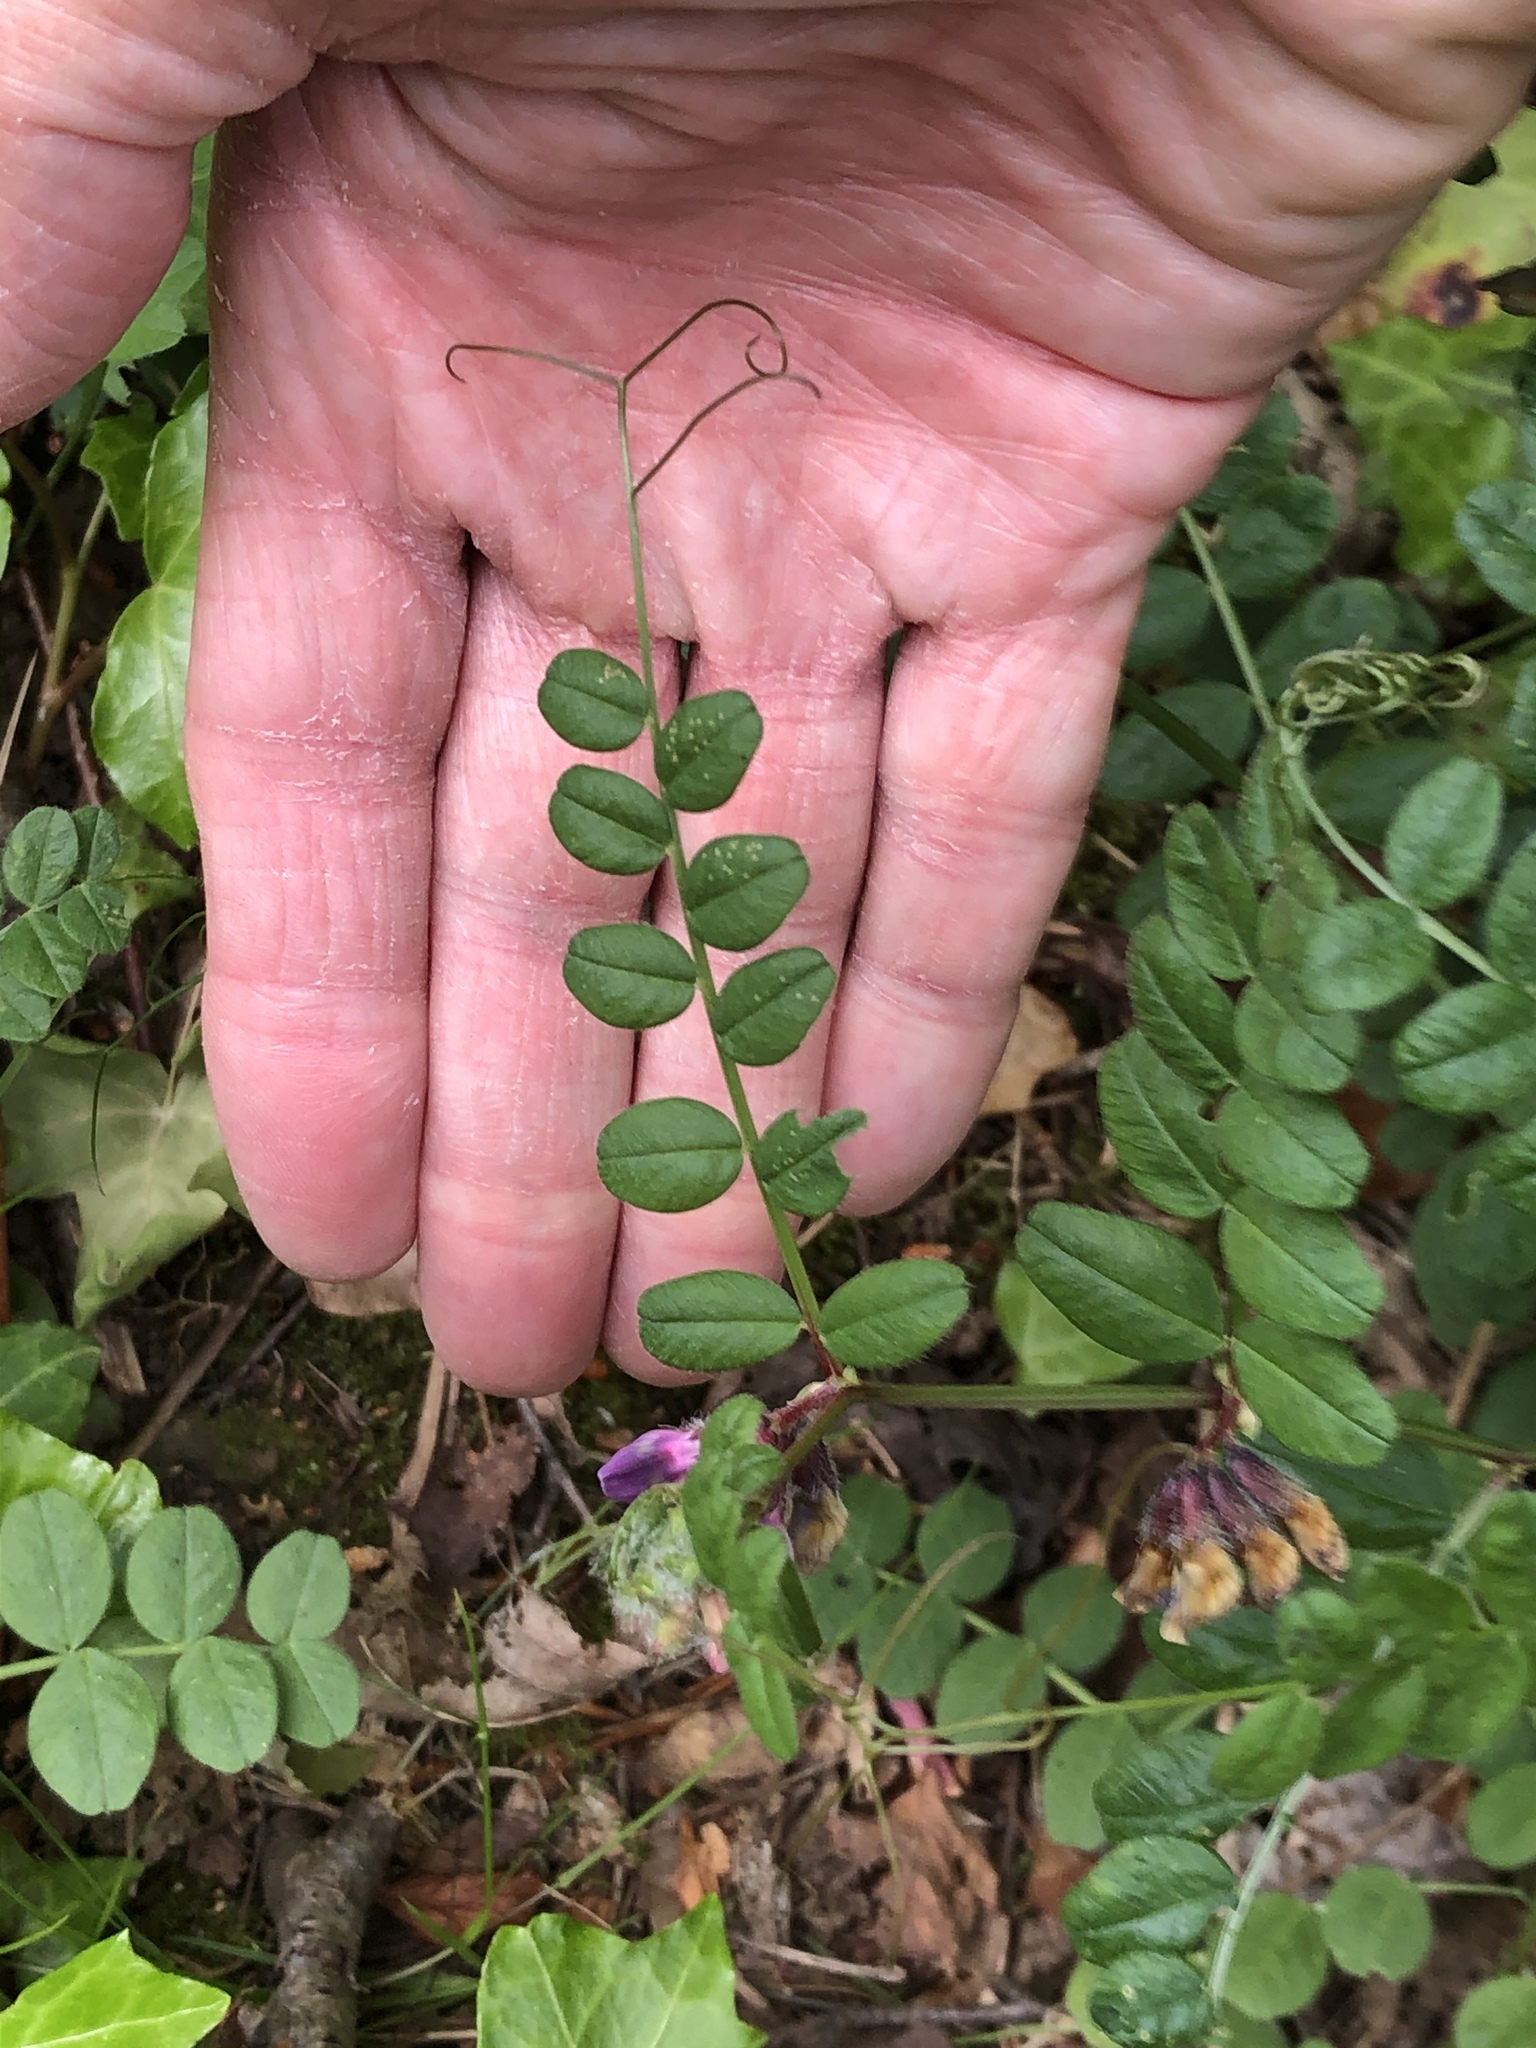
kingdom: Plantae
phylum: Tracheophyta
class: Magnoliopsida
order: Fabales
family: Fabaceae
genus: Vicia
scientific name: Vicia sepium
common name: Bush vetch
